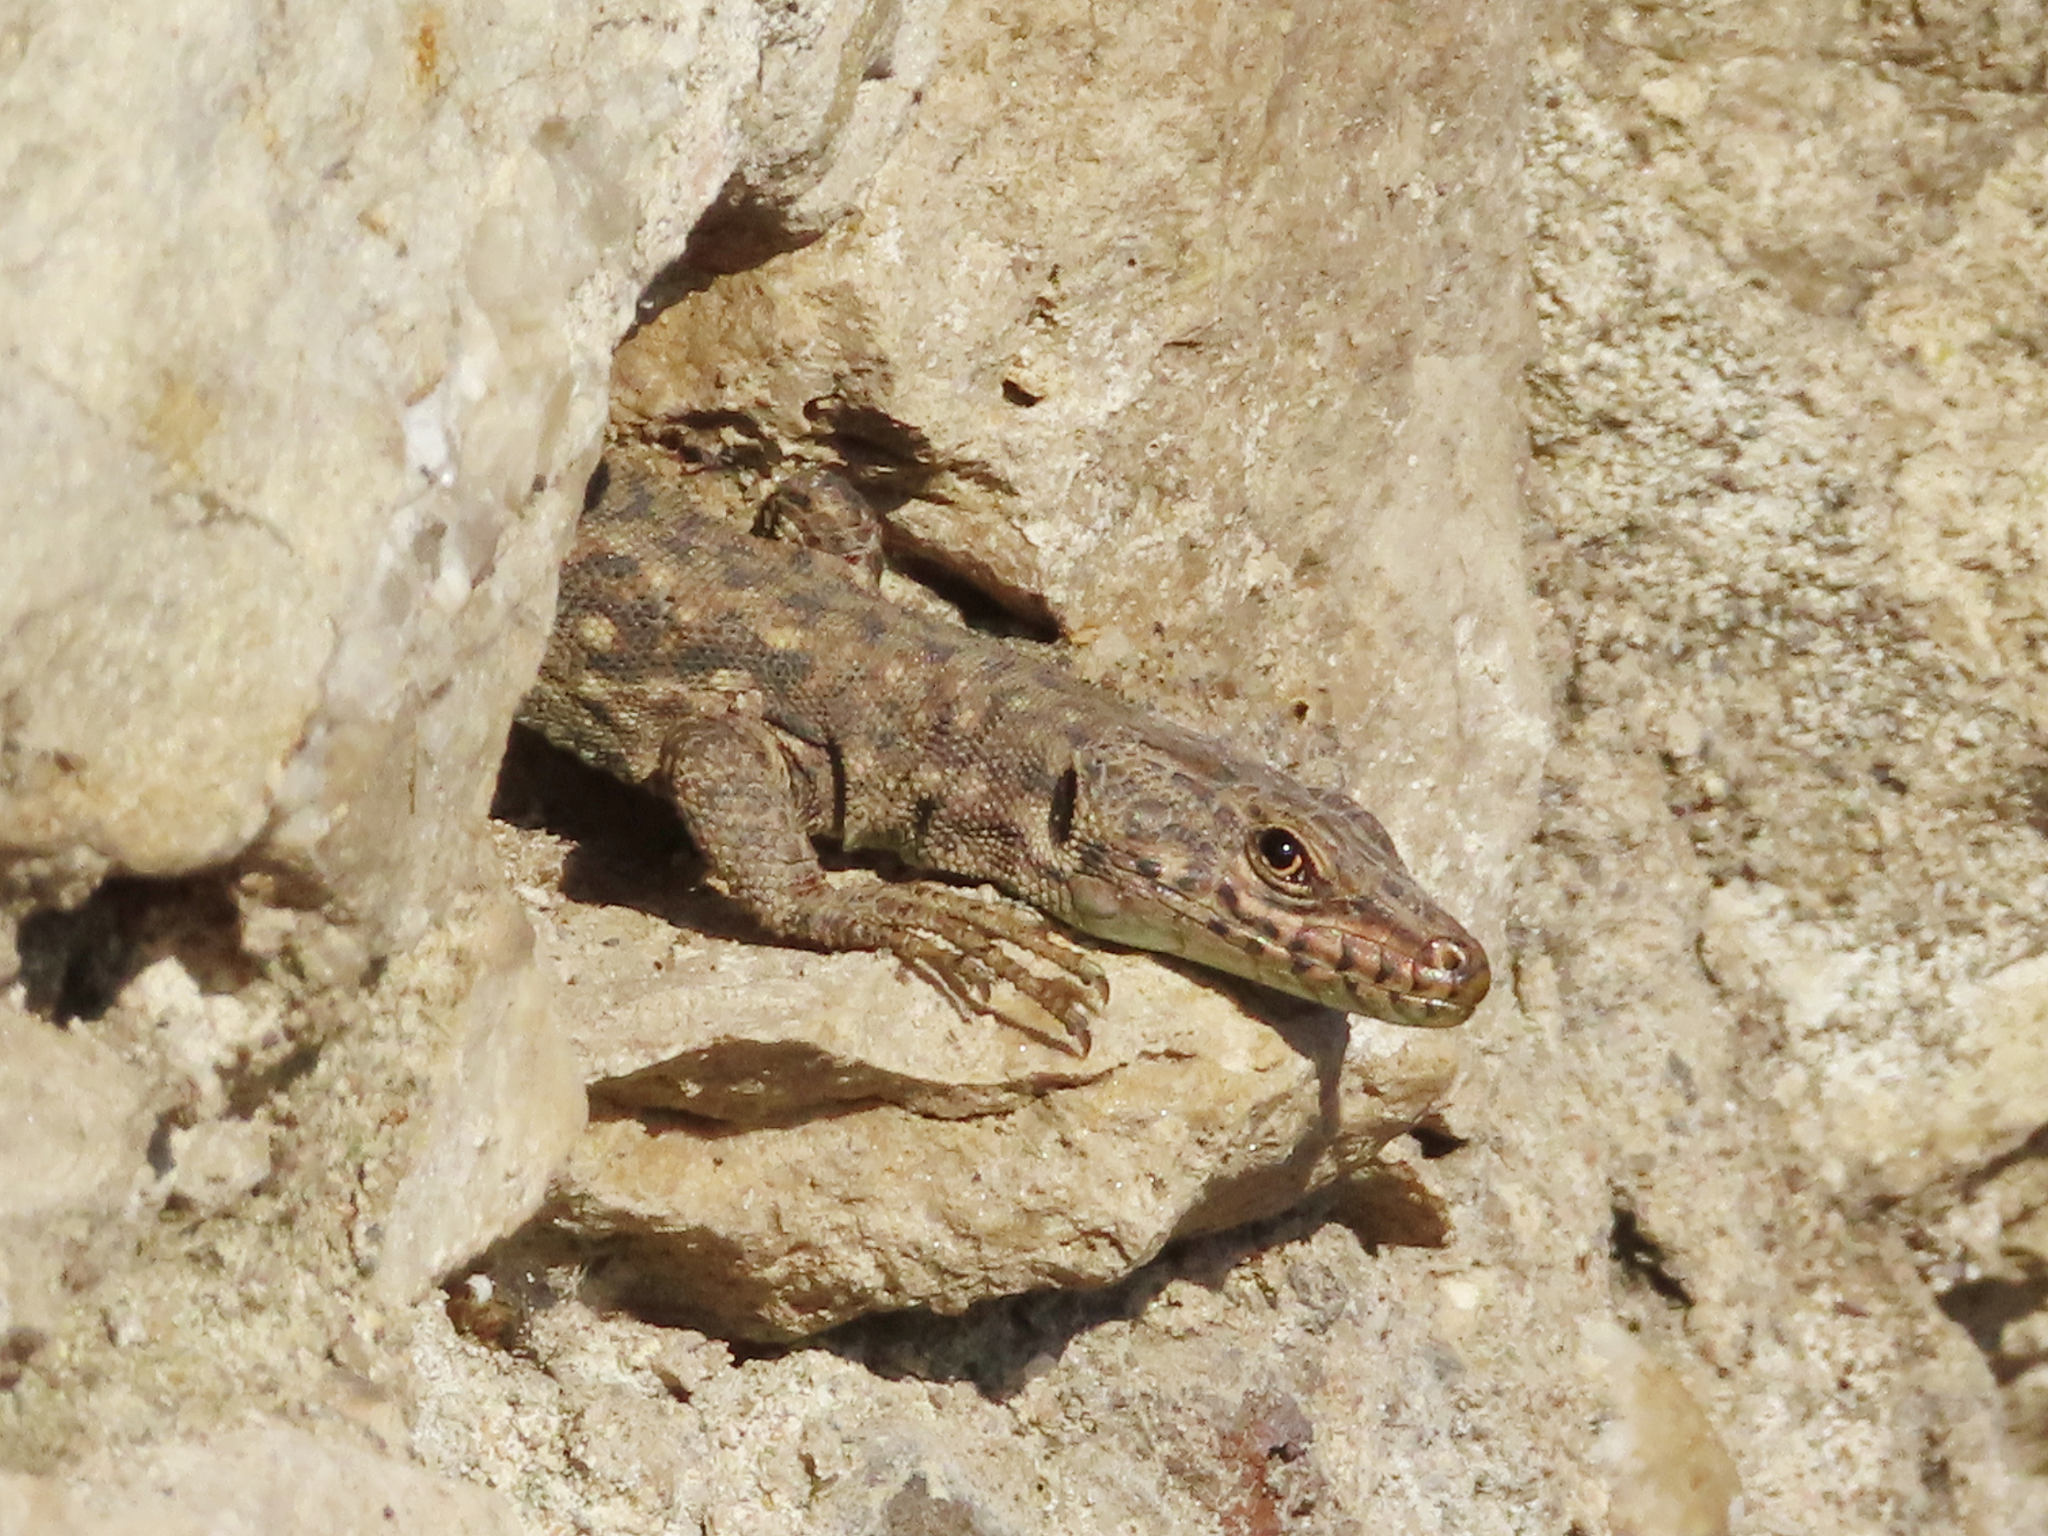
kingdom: Animalia
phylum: Chordata
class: Squamata
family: Lacertidae
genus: Darevskia
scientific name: Darevskia rudis
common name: Spiny-tailed lizard
